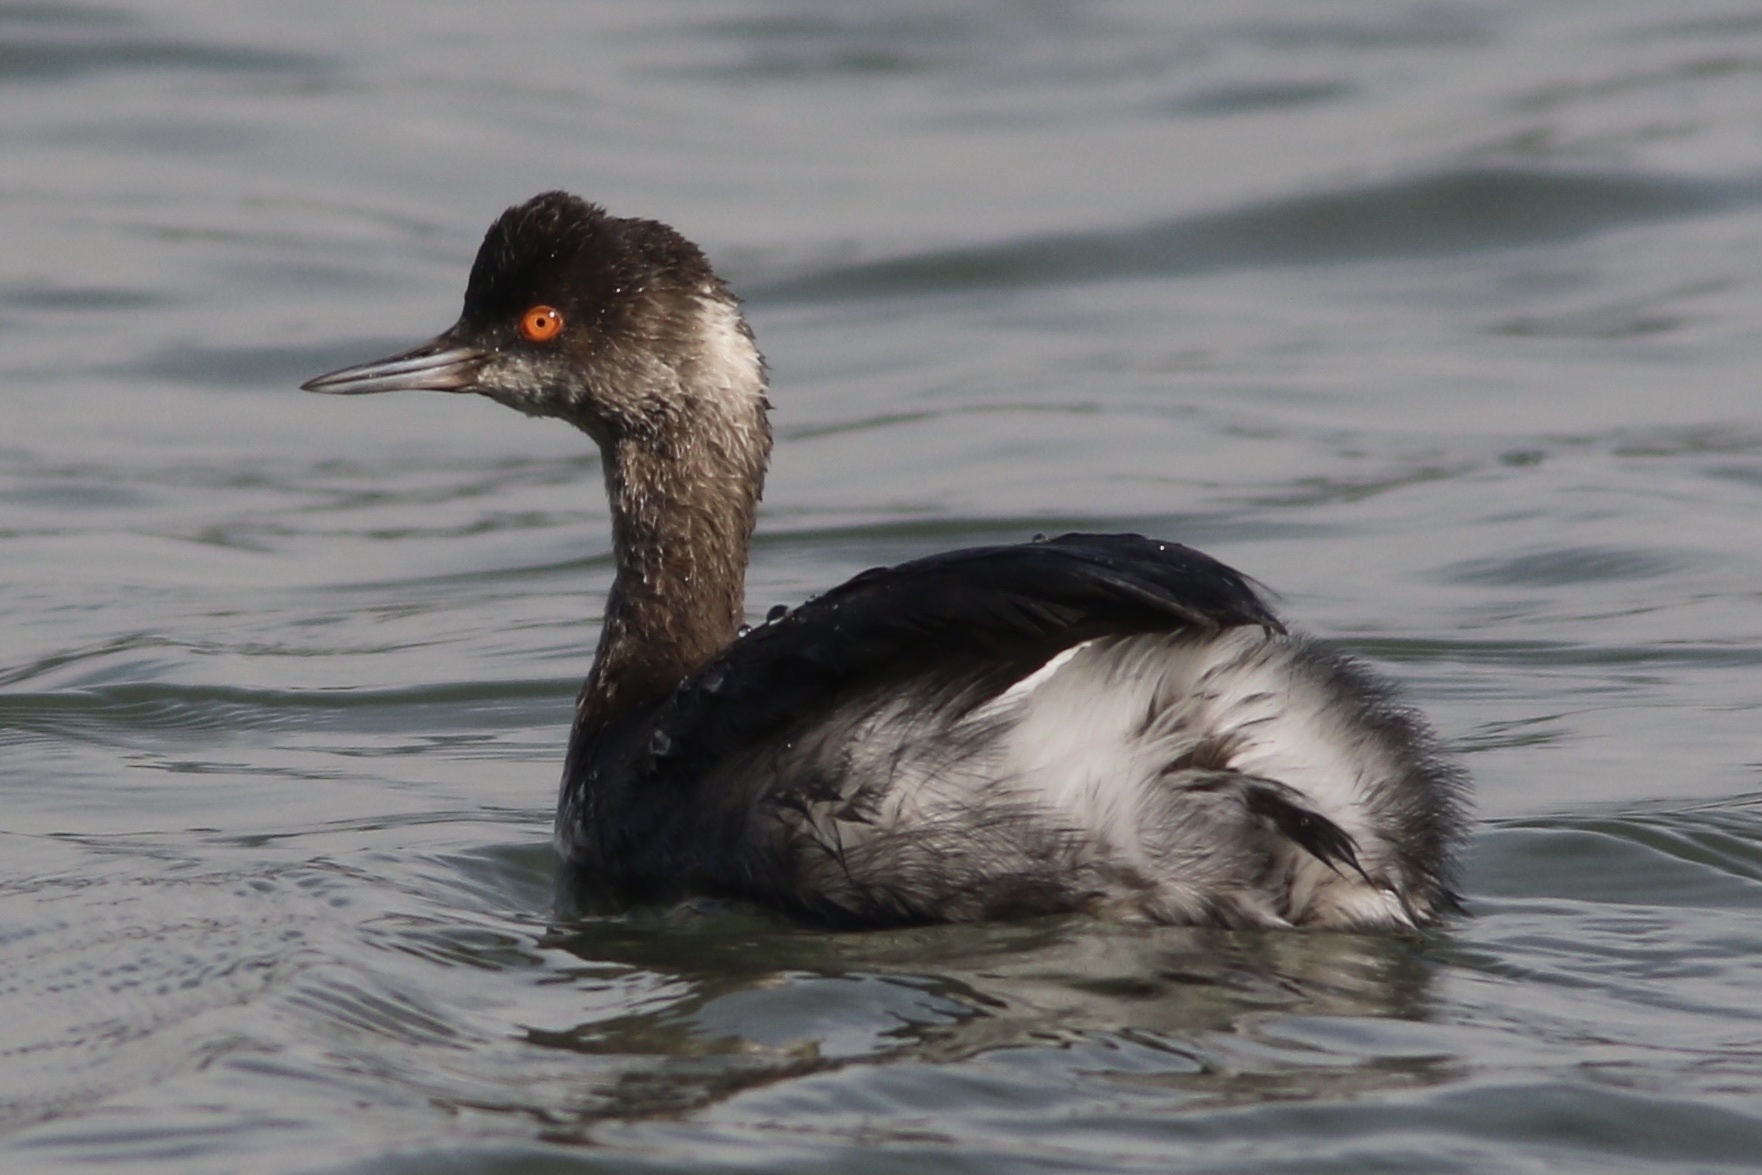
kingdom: Animalia
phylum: Chordata
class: Aves
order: Podicipediformes
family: Podicipedidae
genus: Podiceps
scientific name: Podiceps nigricollis
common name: Black-necked grebe
